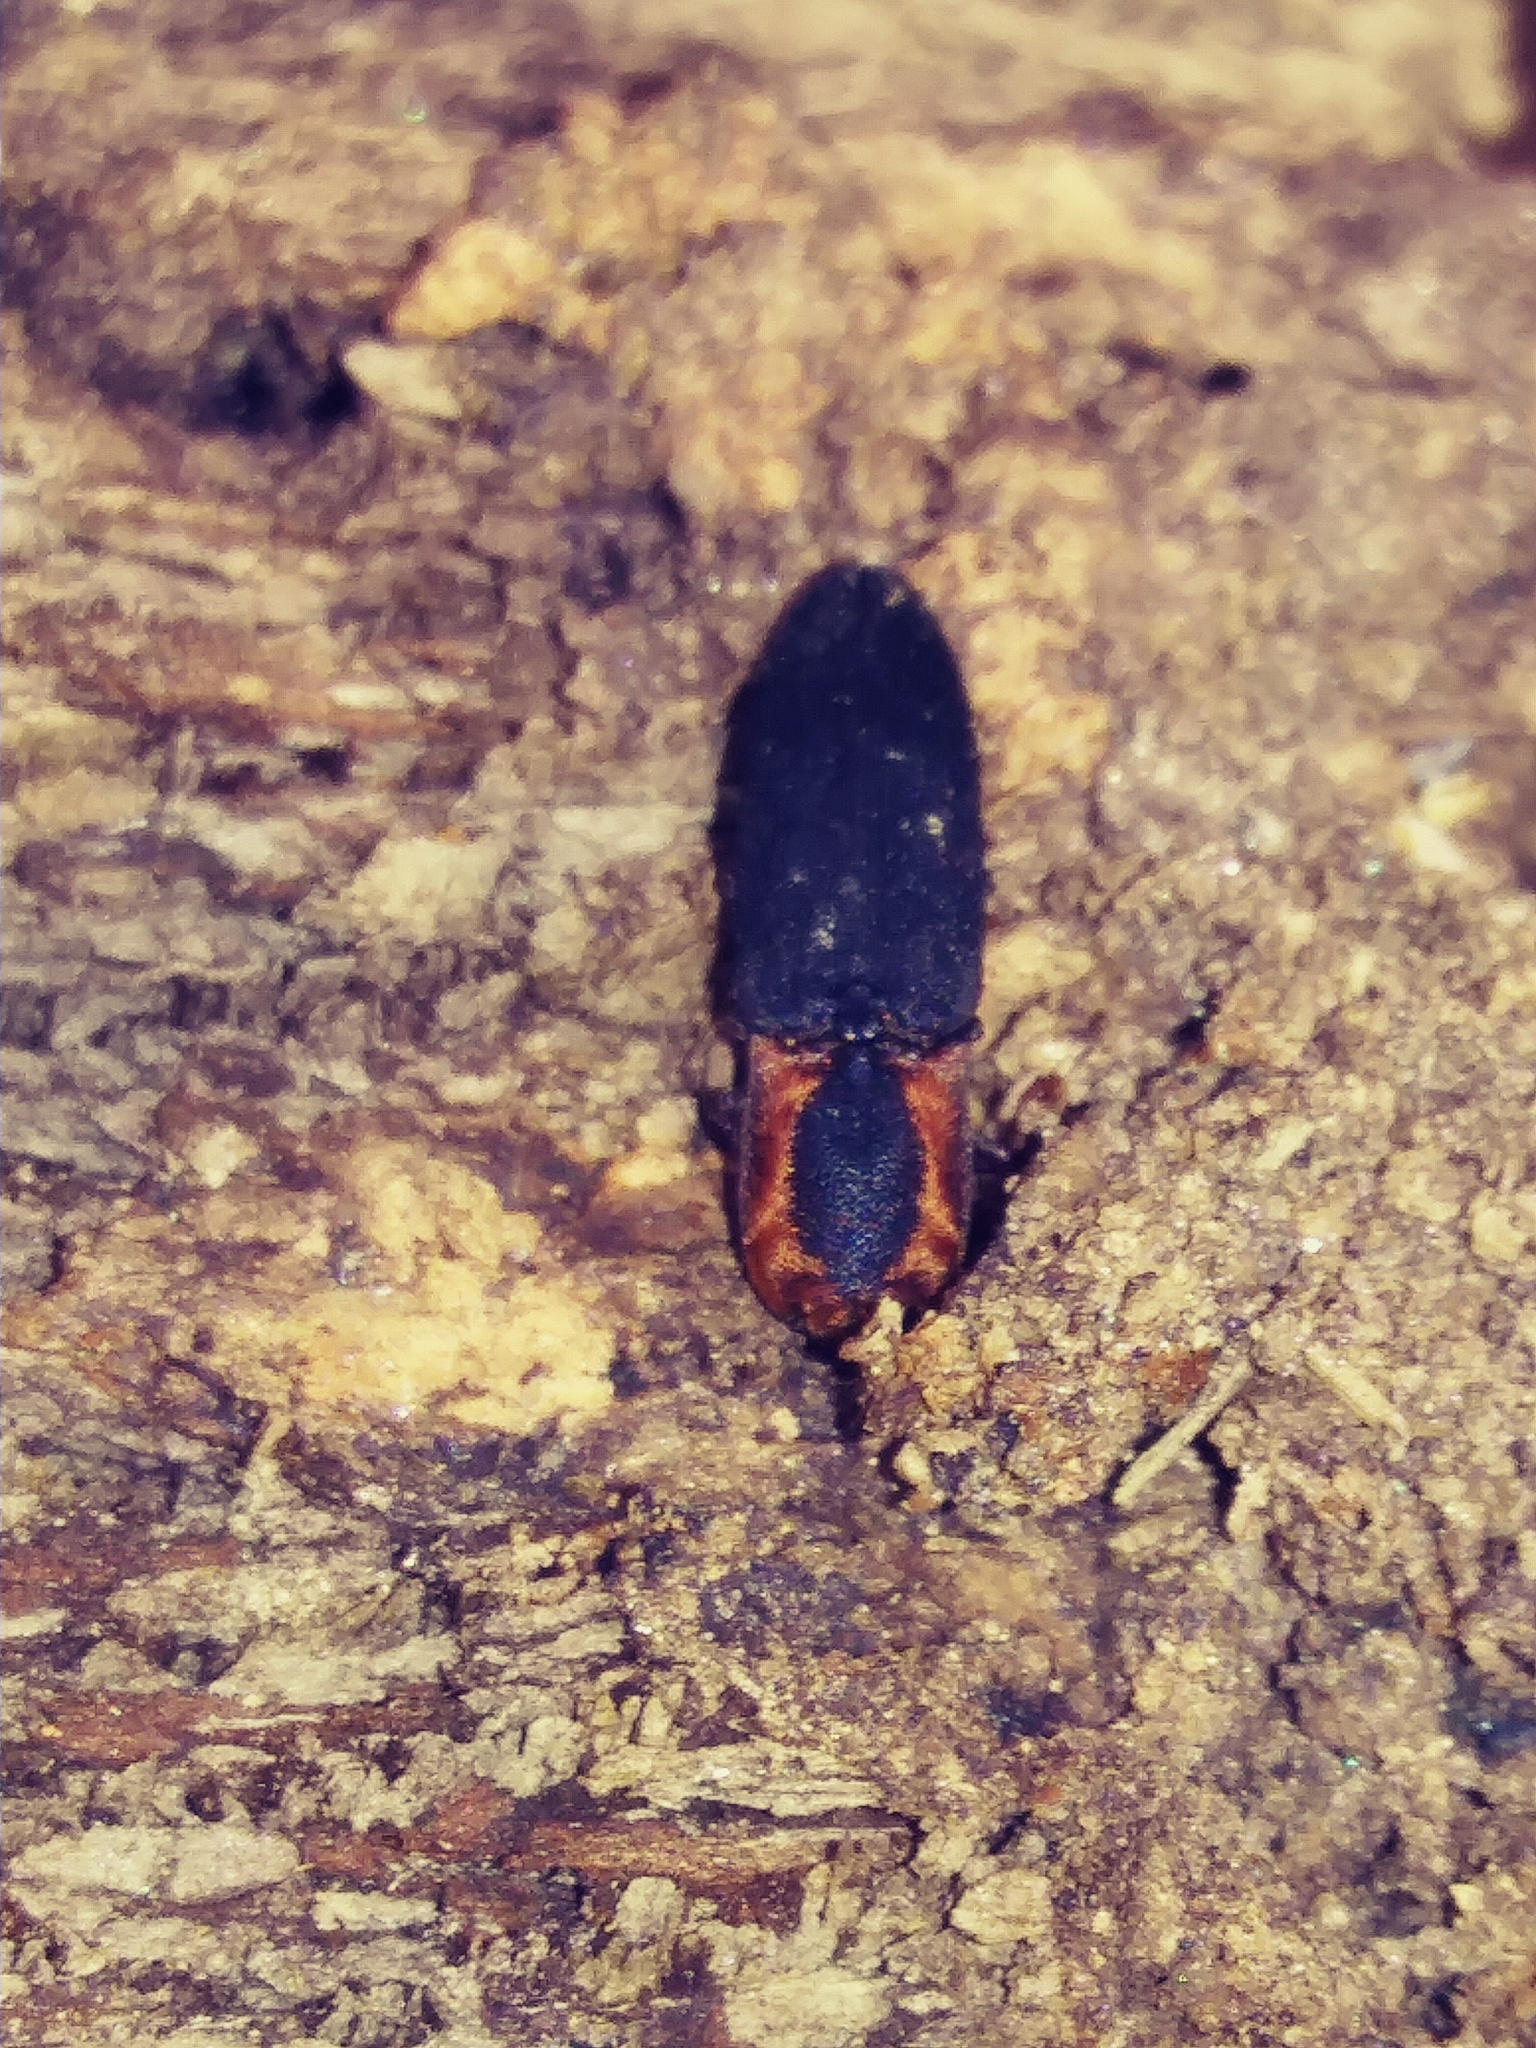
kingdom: Animalia
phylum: Arthropoda
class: Insecta
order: Coleoptera
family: Elateridae
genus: Lacon
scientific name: Lacon discoideus
